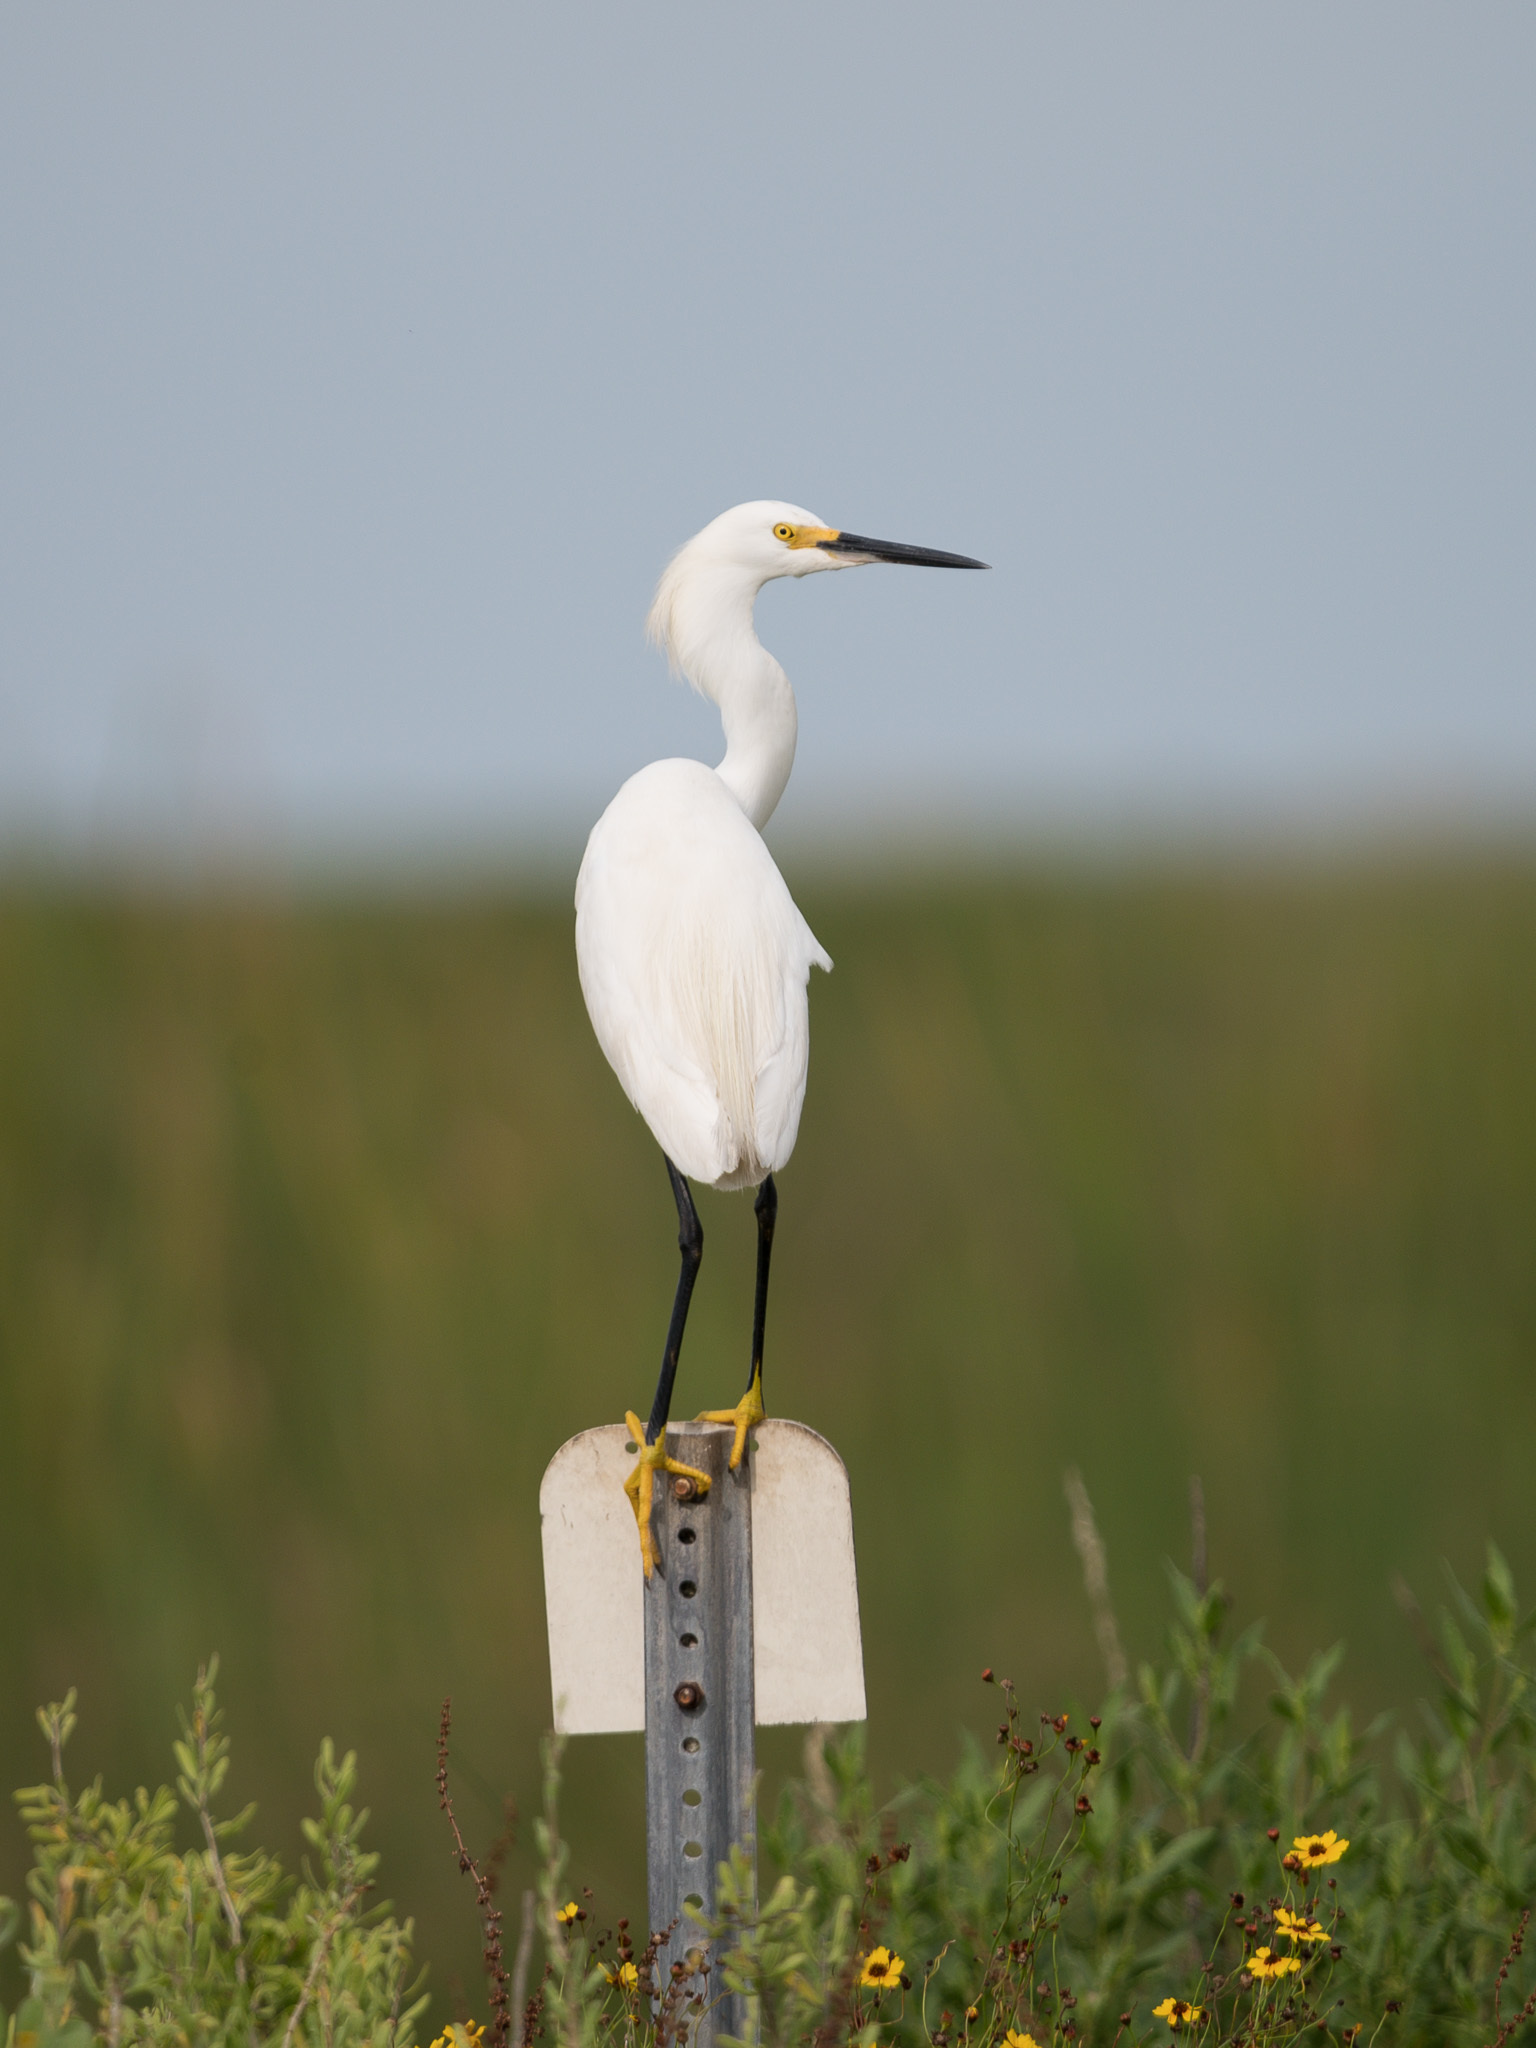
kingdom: Animalia
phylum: Chordata
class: Aves
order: Pelecaniformes
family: Ardeidae
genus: Egretta
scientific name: Egretta thula
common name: Snowy egret
